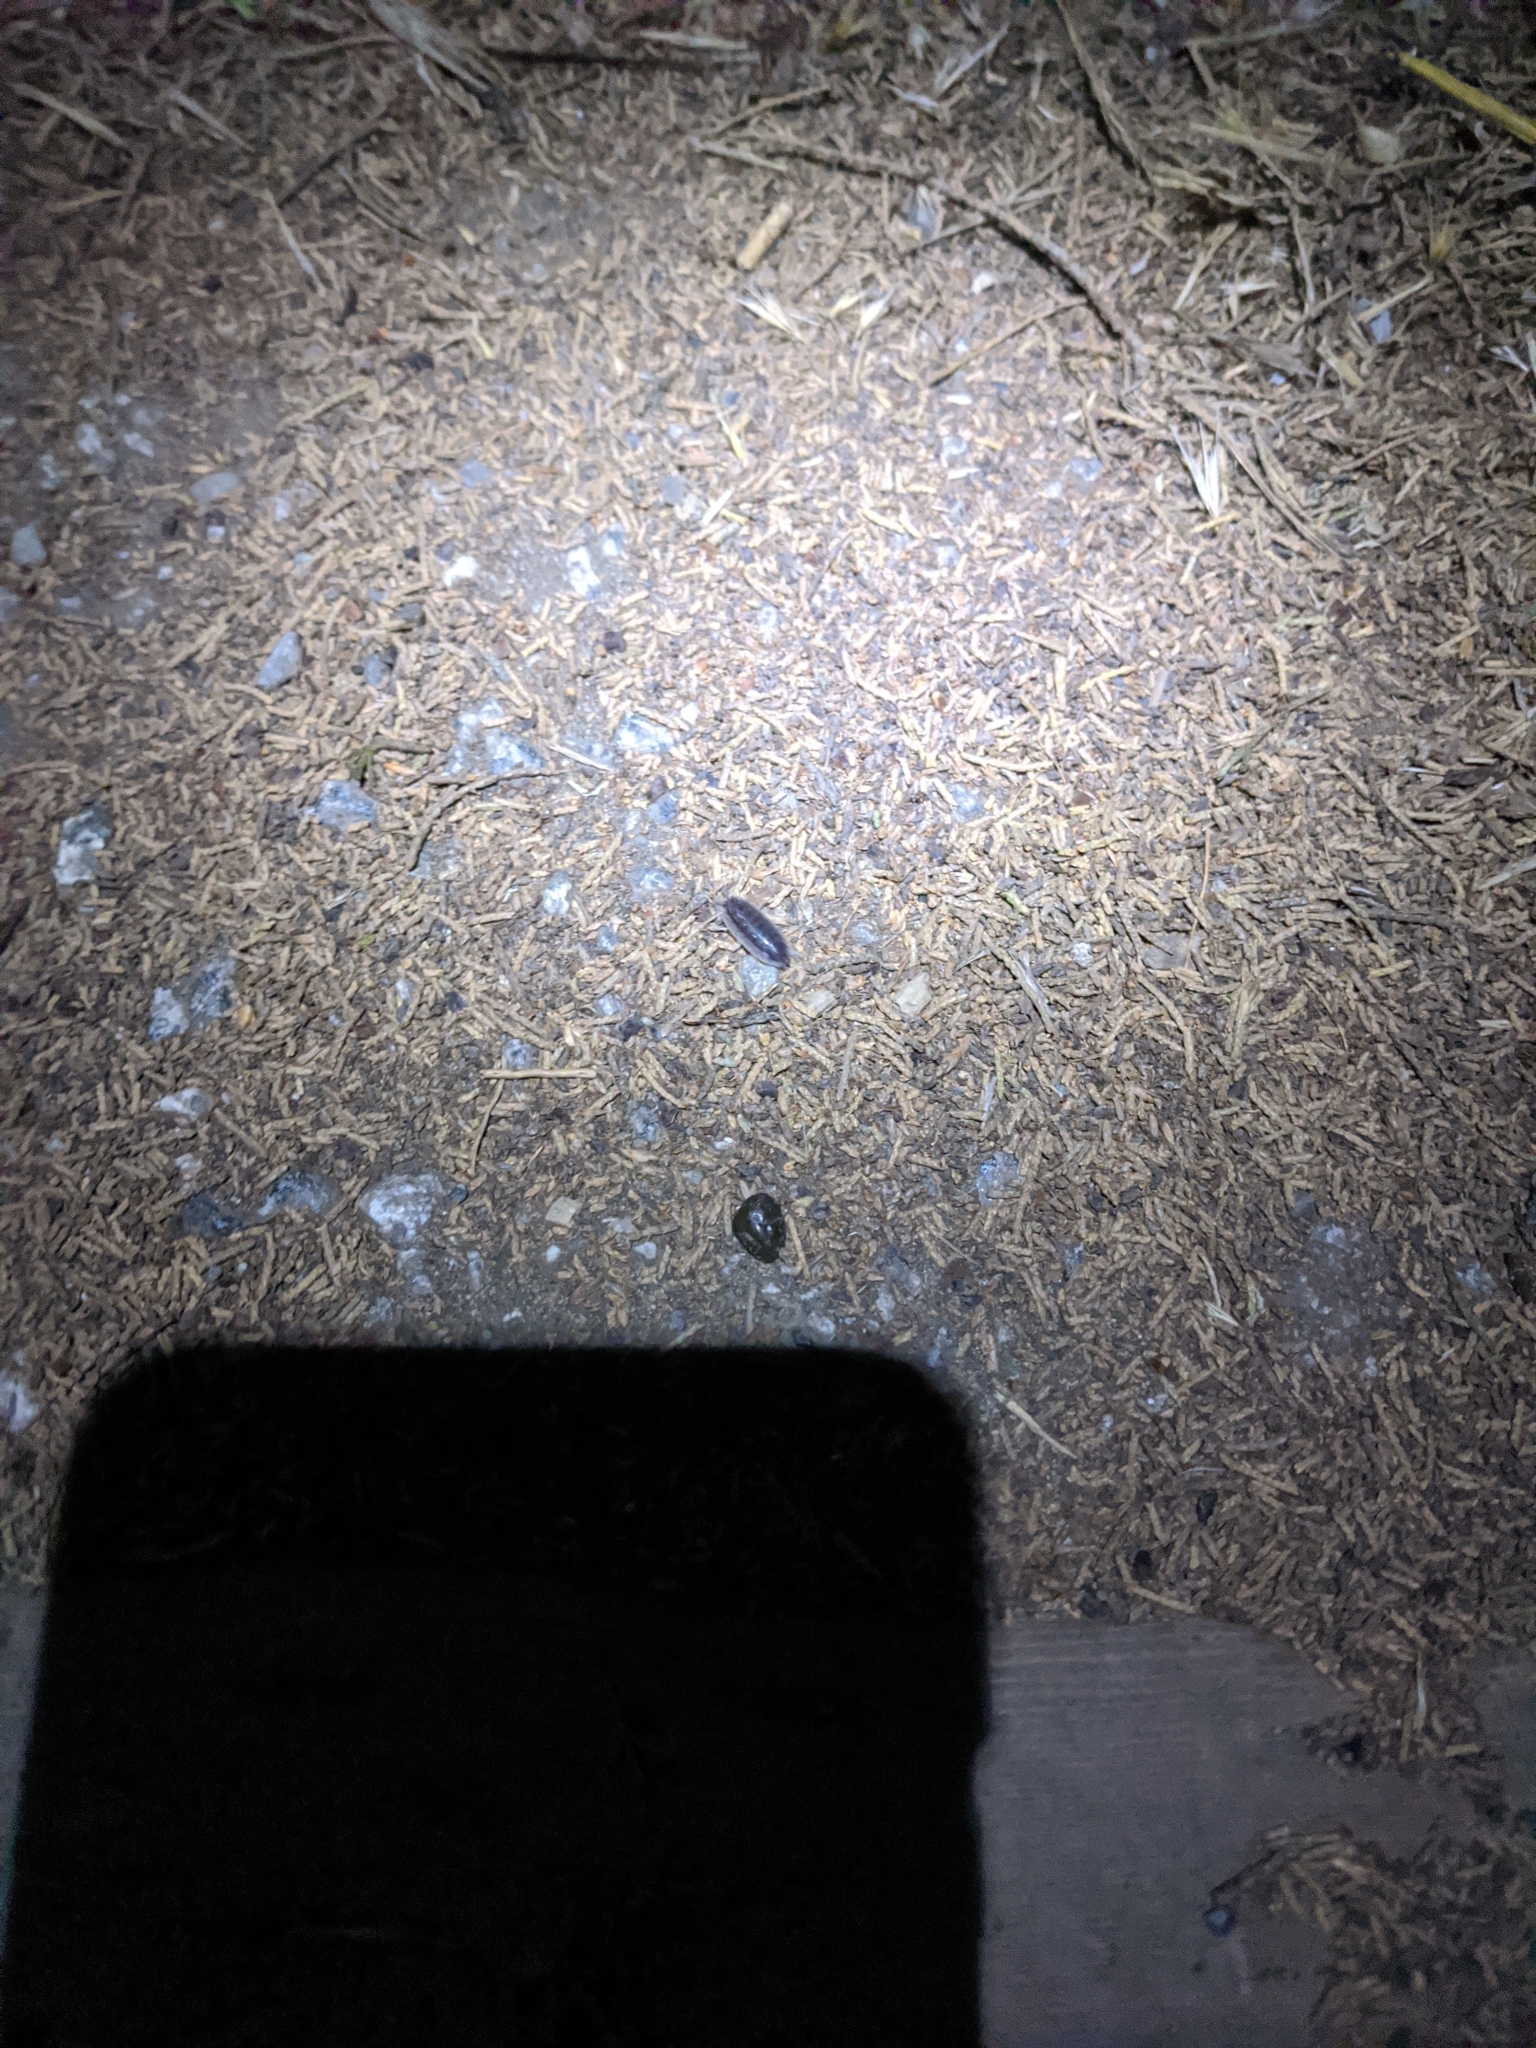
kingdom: Animalia
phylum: Arthropoda
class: Malacostraca
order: Isopoda
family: Porcellionidae
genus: Porcellio
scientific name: Porcellio scaber
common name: Common rough woodlouse
